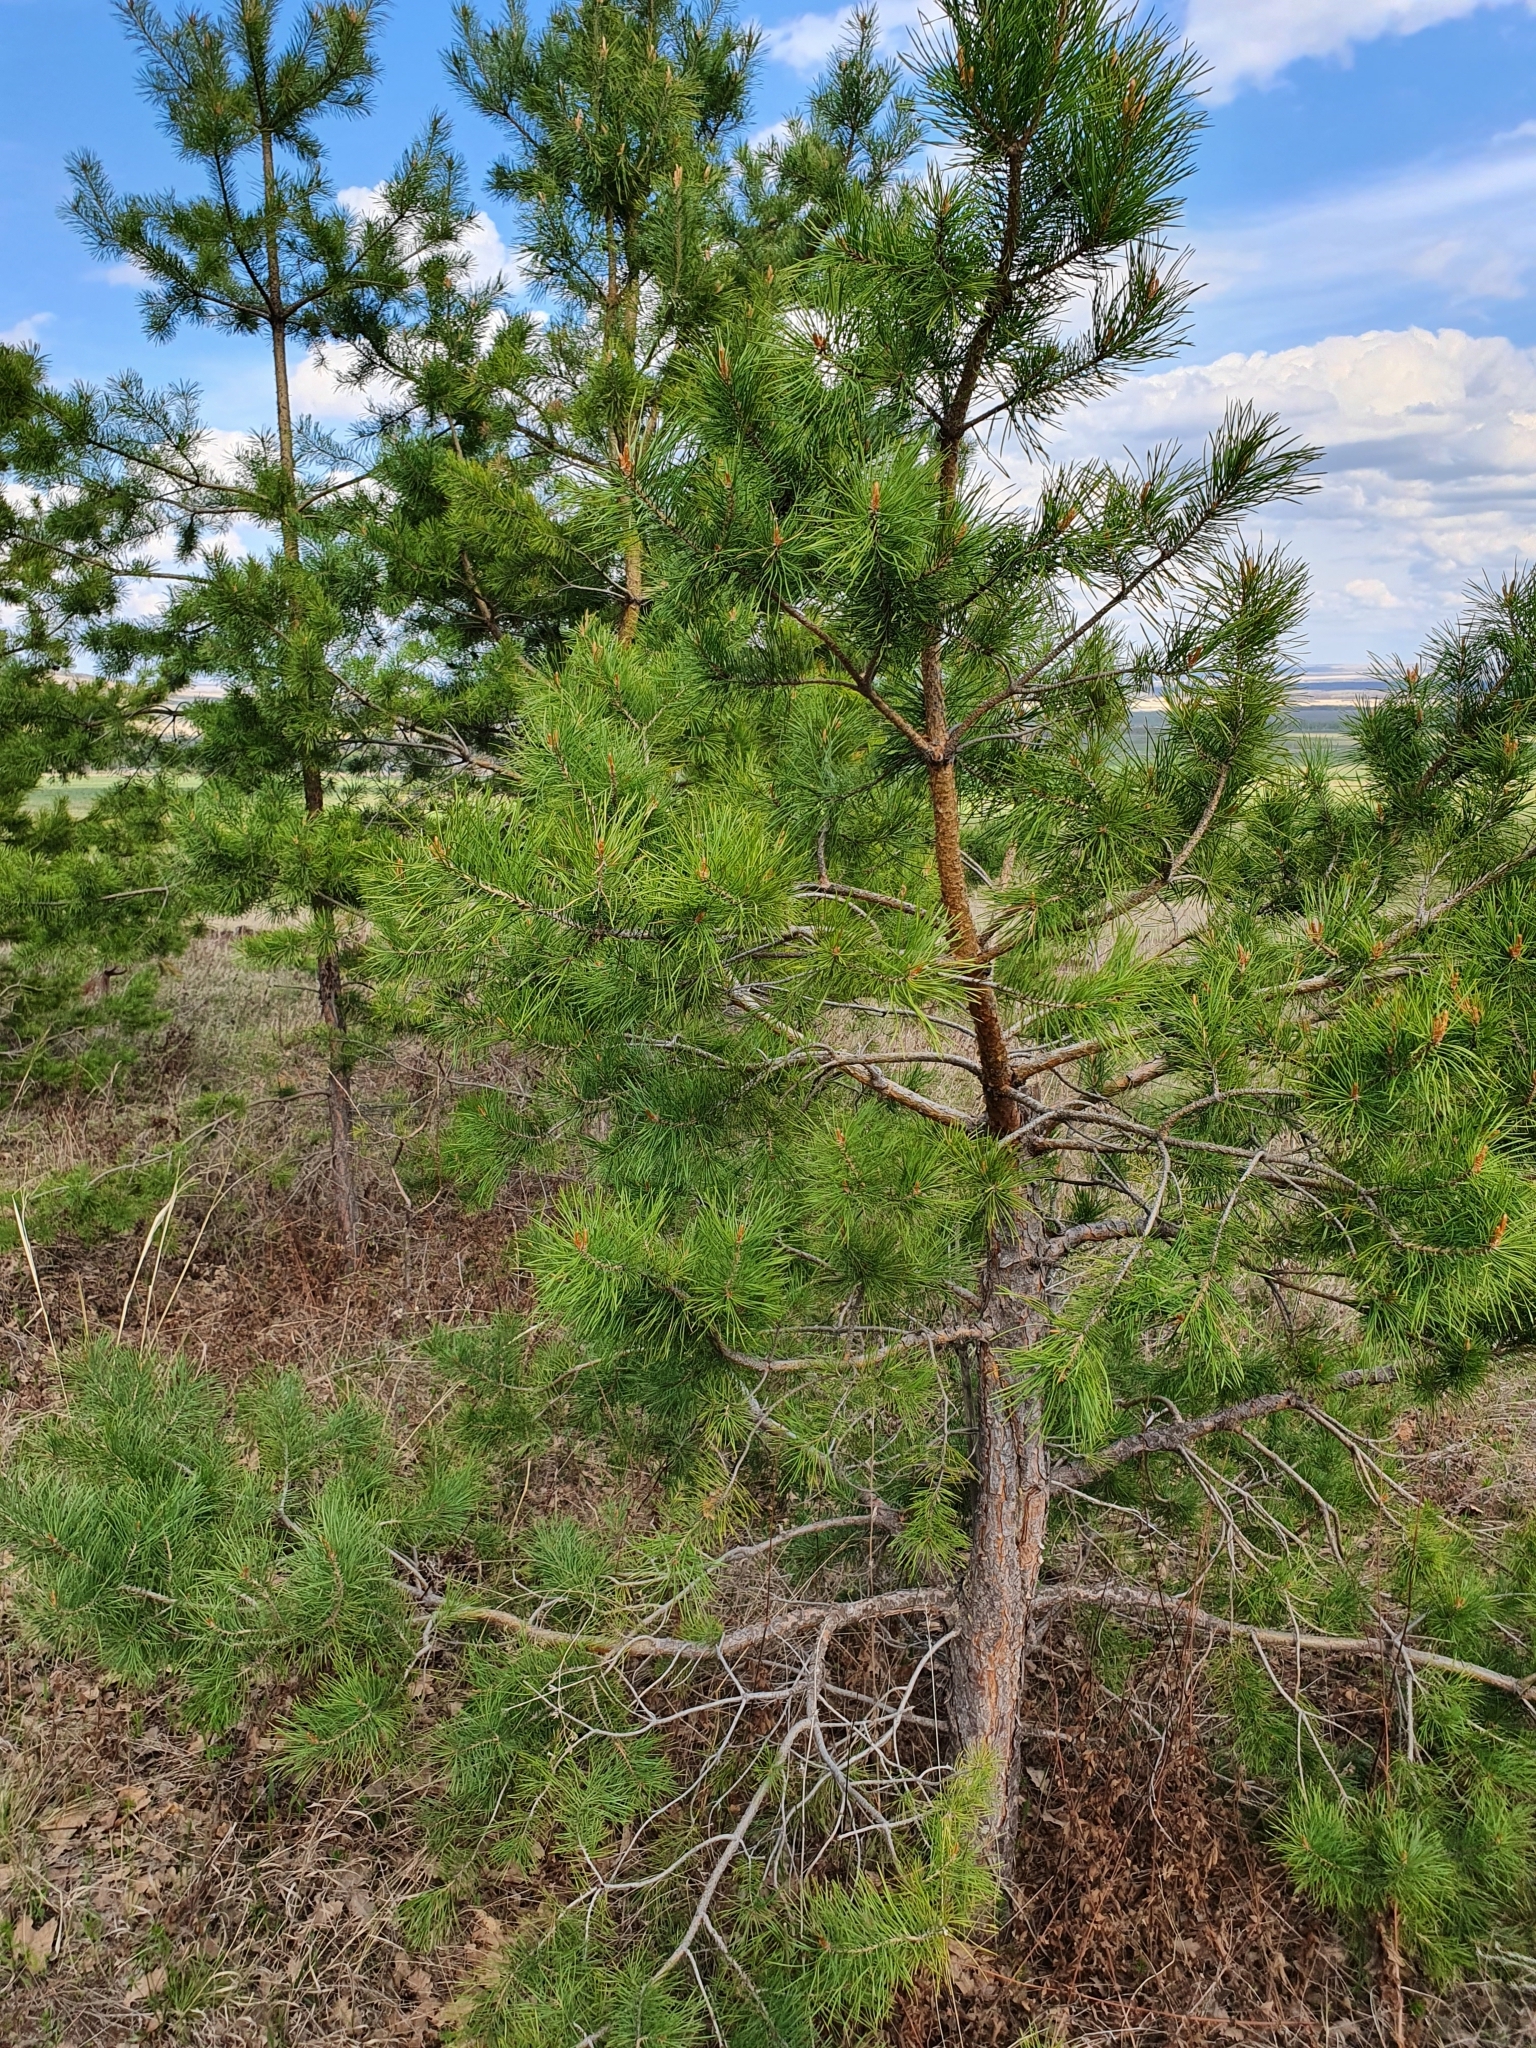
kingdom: Plantae
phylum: Tracheophyta
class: Pinopsida
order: Pinales
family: Pinaceae
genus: Pinus
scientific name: Pinus sylvestris
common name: Scots pine
